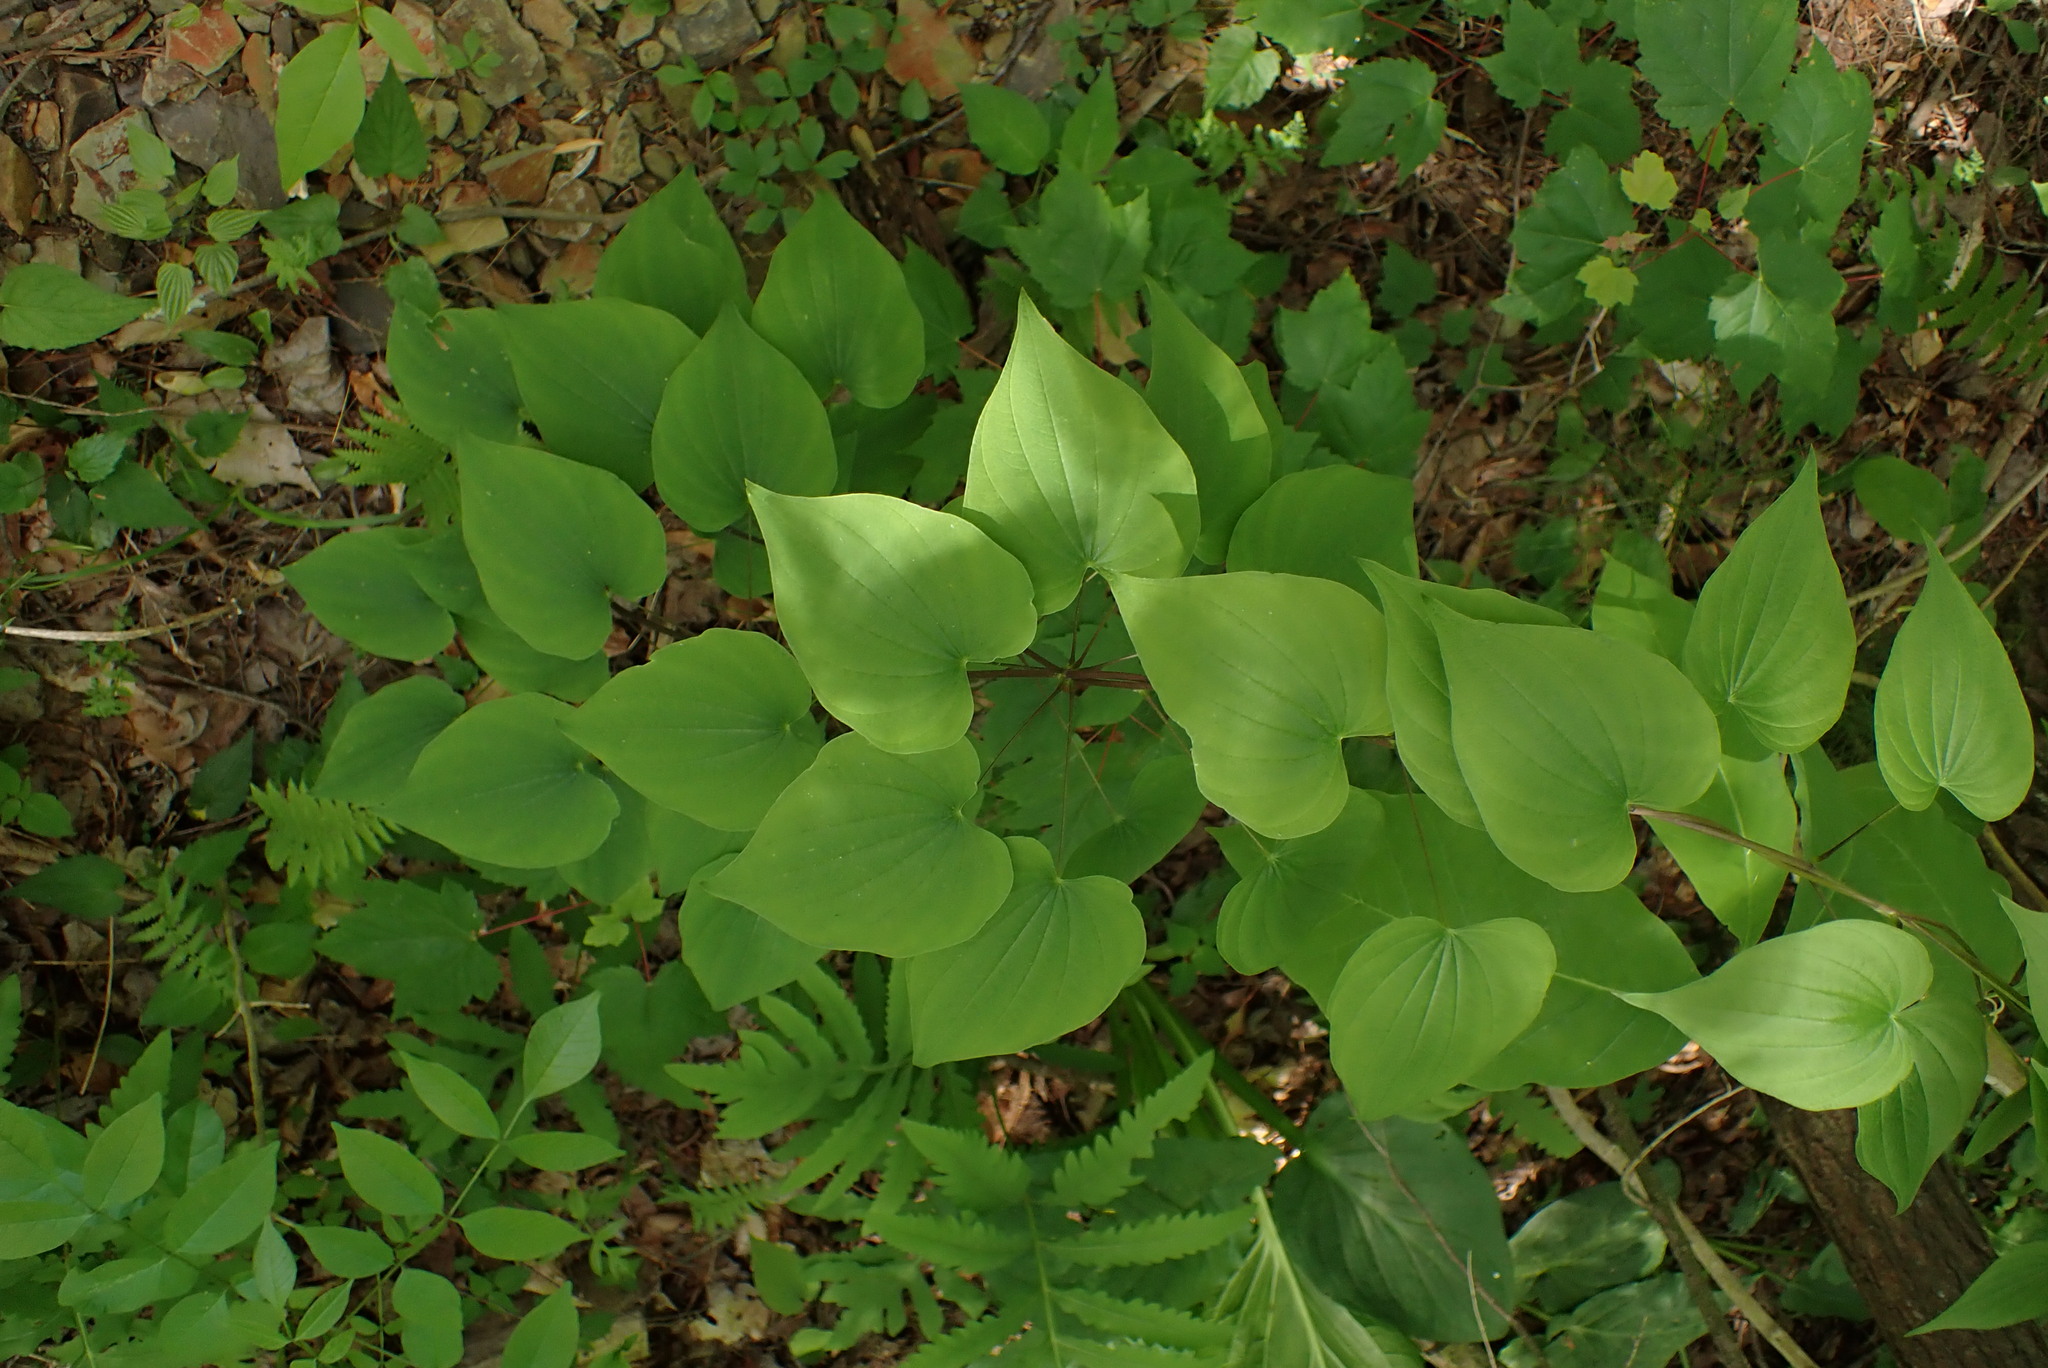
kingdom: Plantae
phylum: Tracheophyta
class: Liliopsida
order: Dioscoreales
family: Dioscoreaceae
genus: Dioscorea
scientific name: Dioscorea villosa
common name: Wild yam
